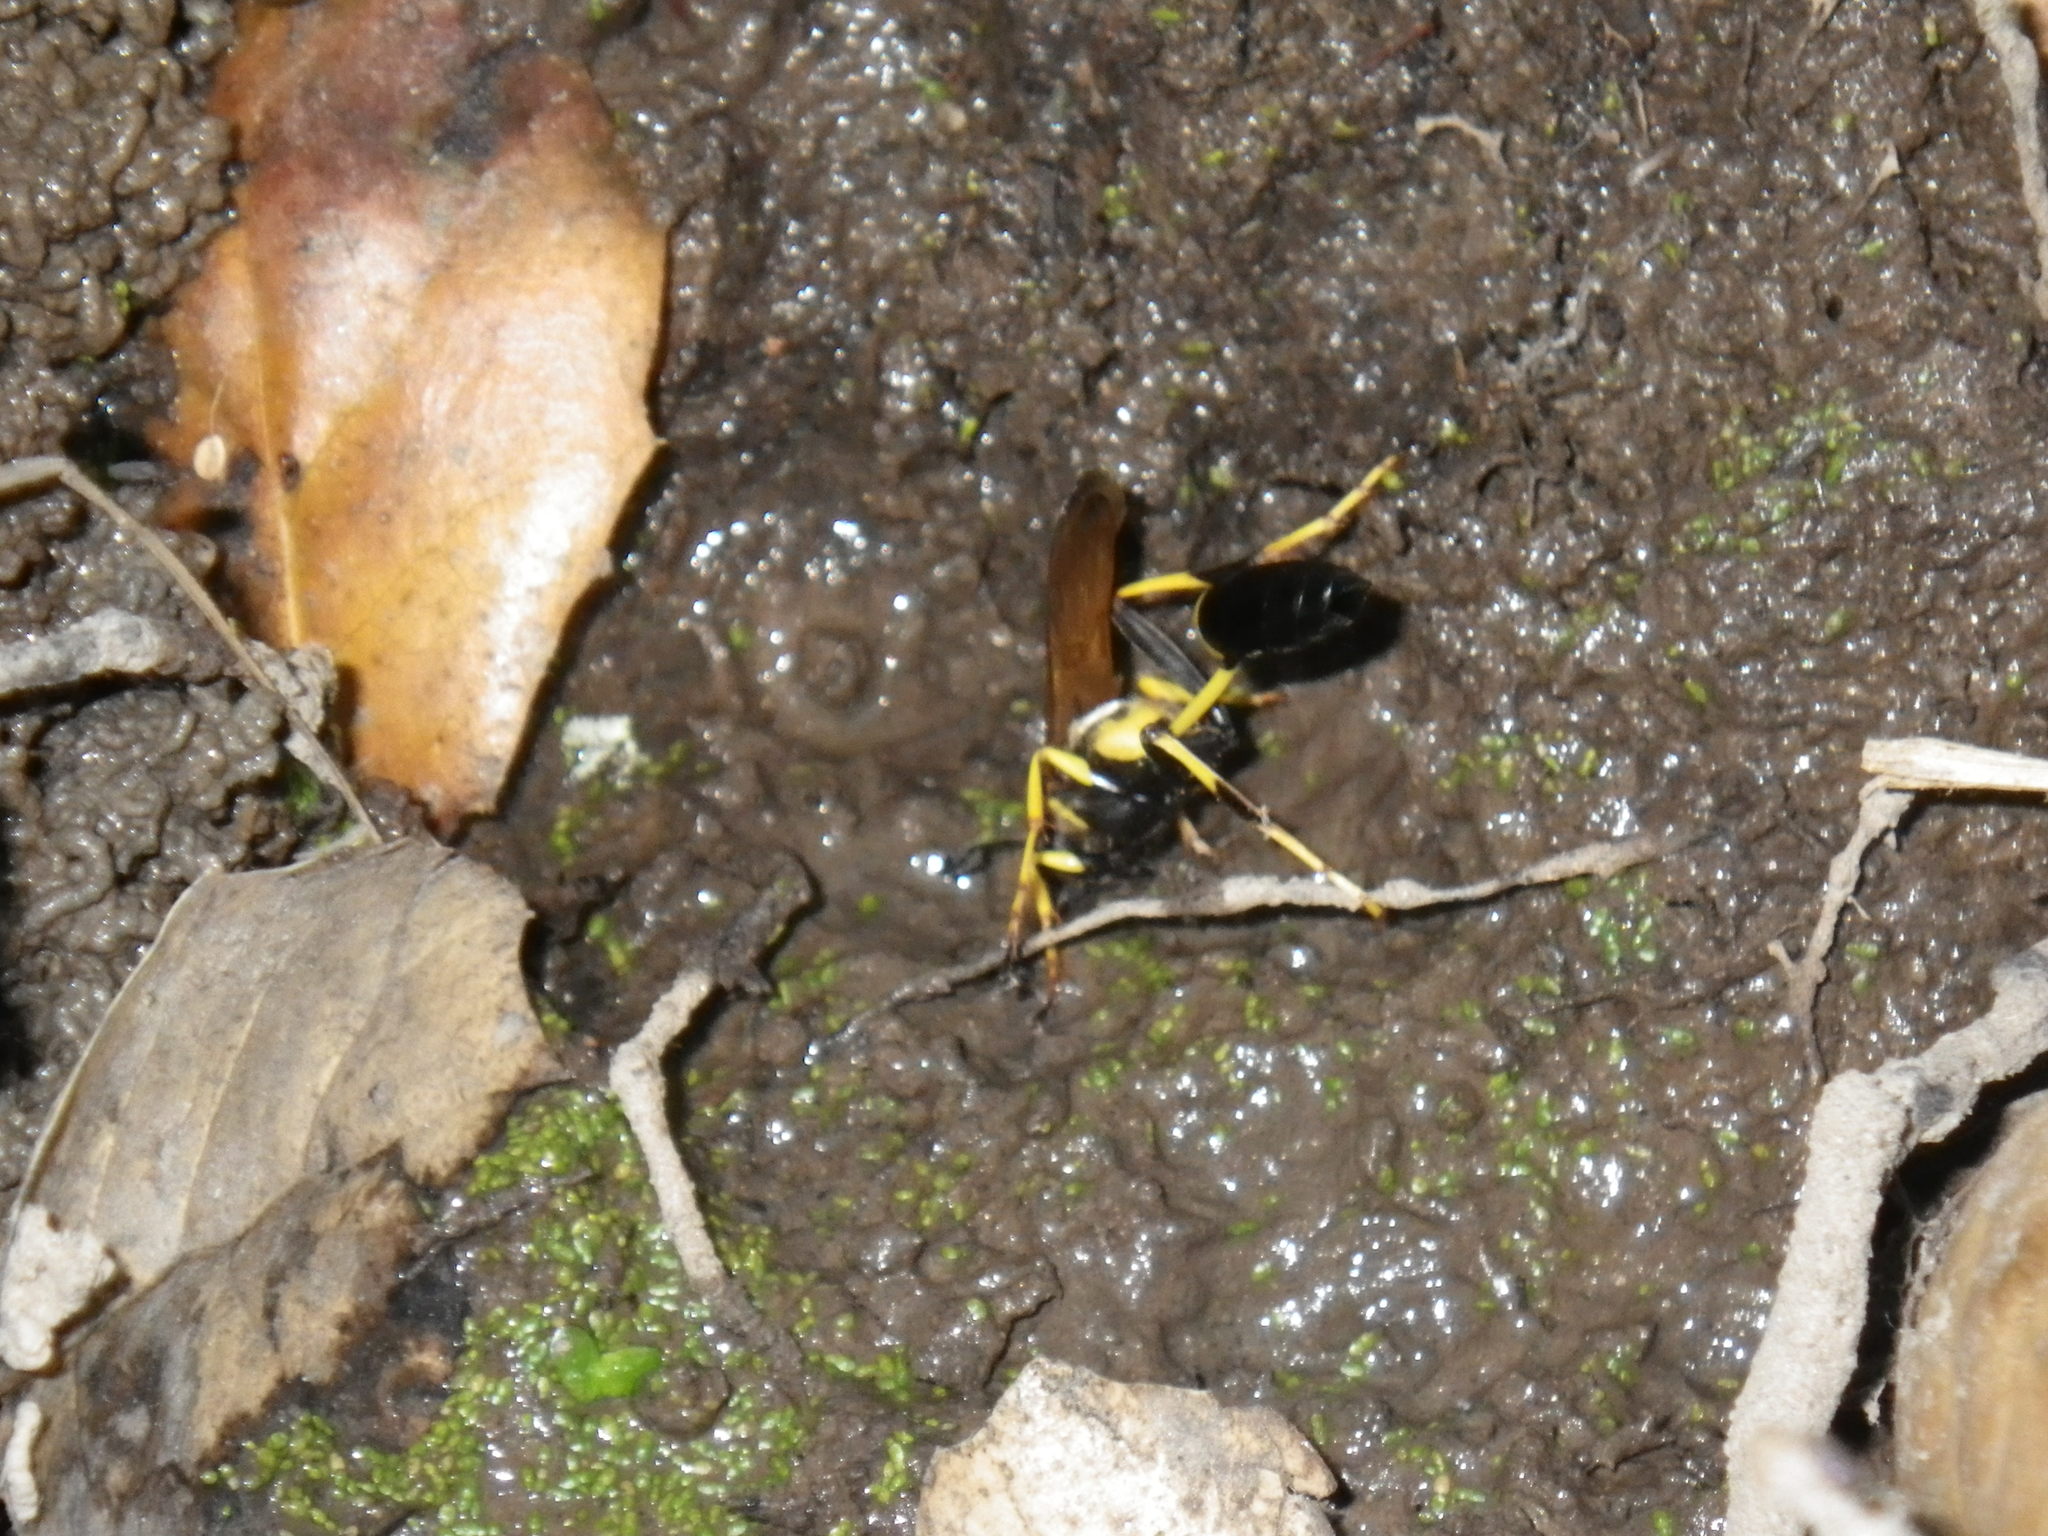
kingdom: Animalia
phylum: Arthropoda
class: Insecta
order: Hymenoptera
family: Sphecidae
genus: Sceliphron
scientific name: Sceliphron caementarium
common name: Mud dauber
